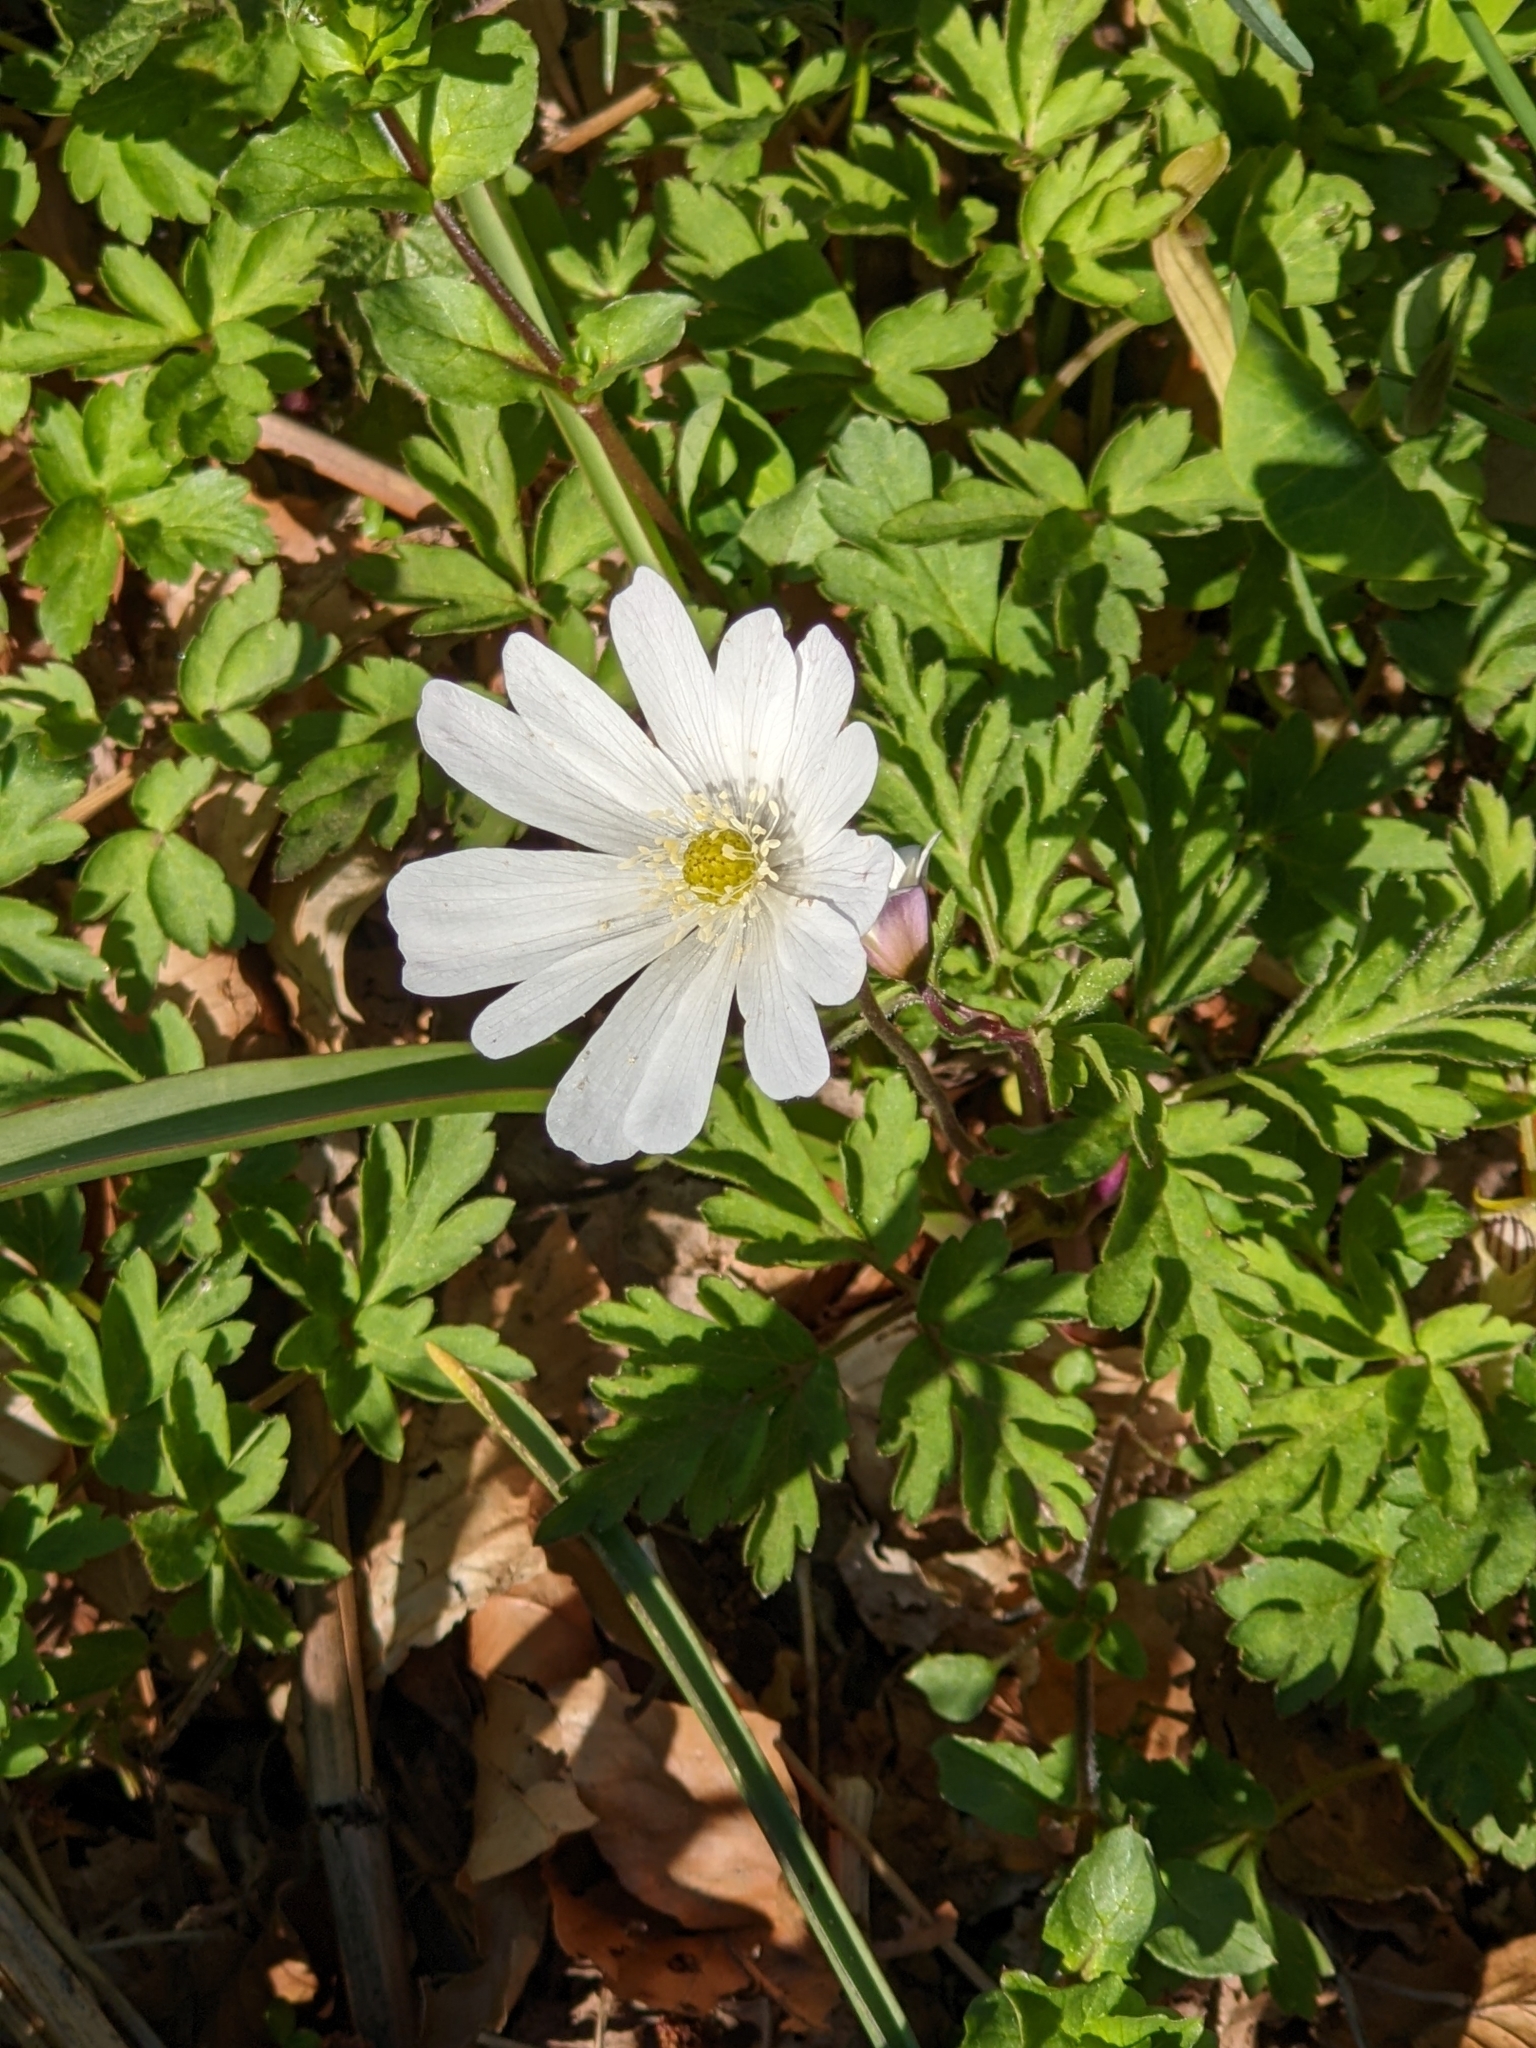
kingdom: Plantae
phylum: Tracheophyta
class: Magnoliopsida
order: Ranunculales
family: Ranunculaceae
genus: Anemone
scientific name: Anemone apennina
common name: Blue anemone
